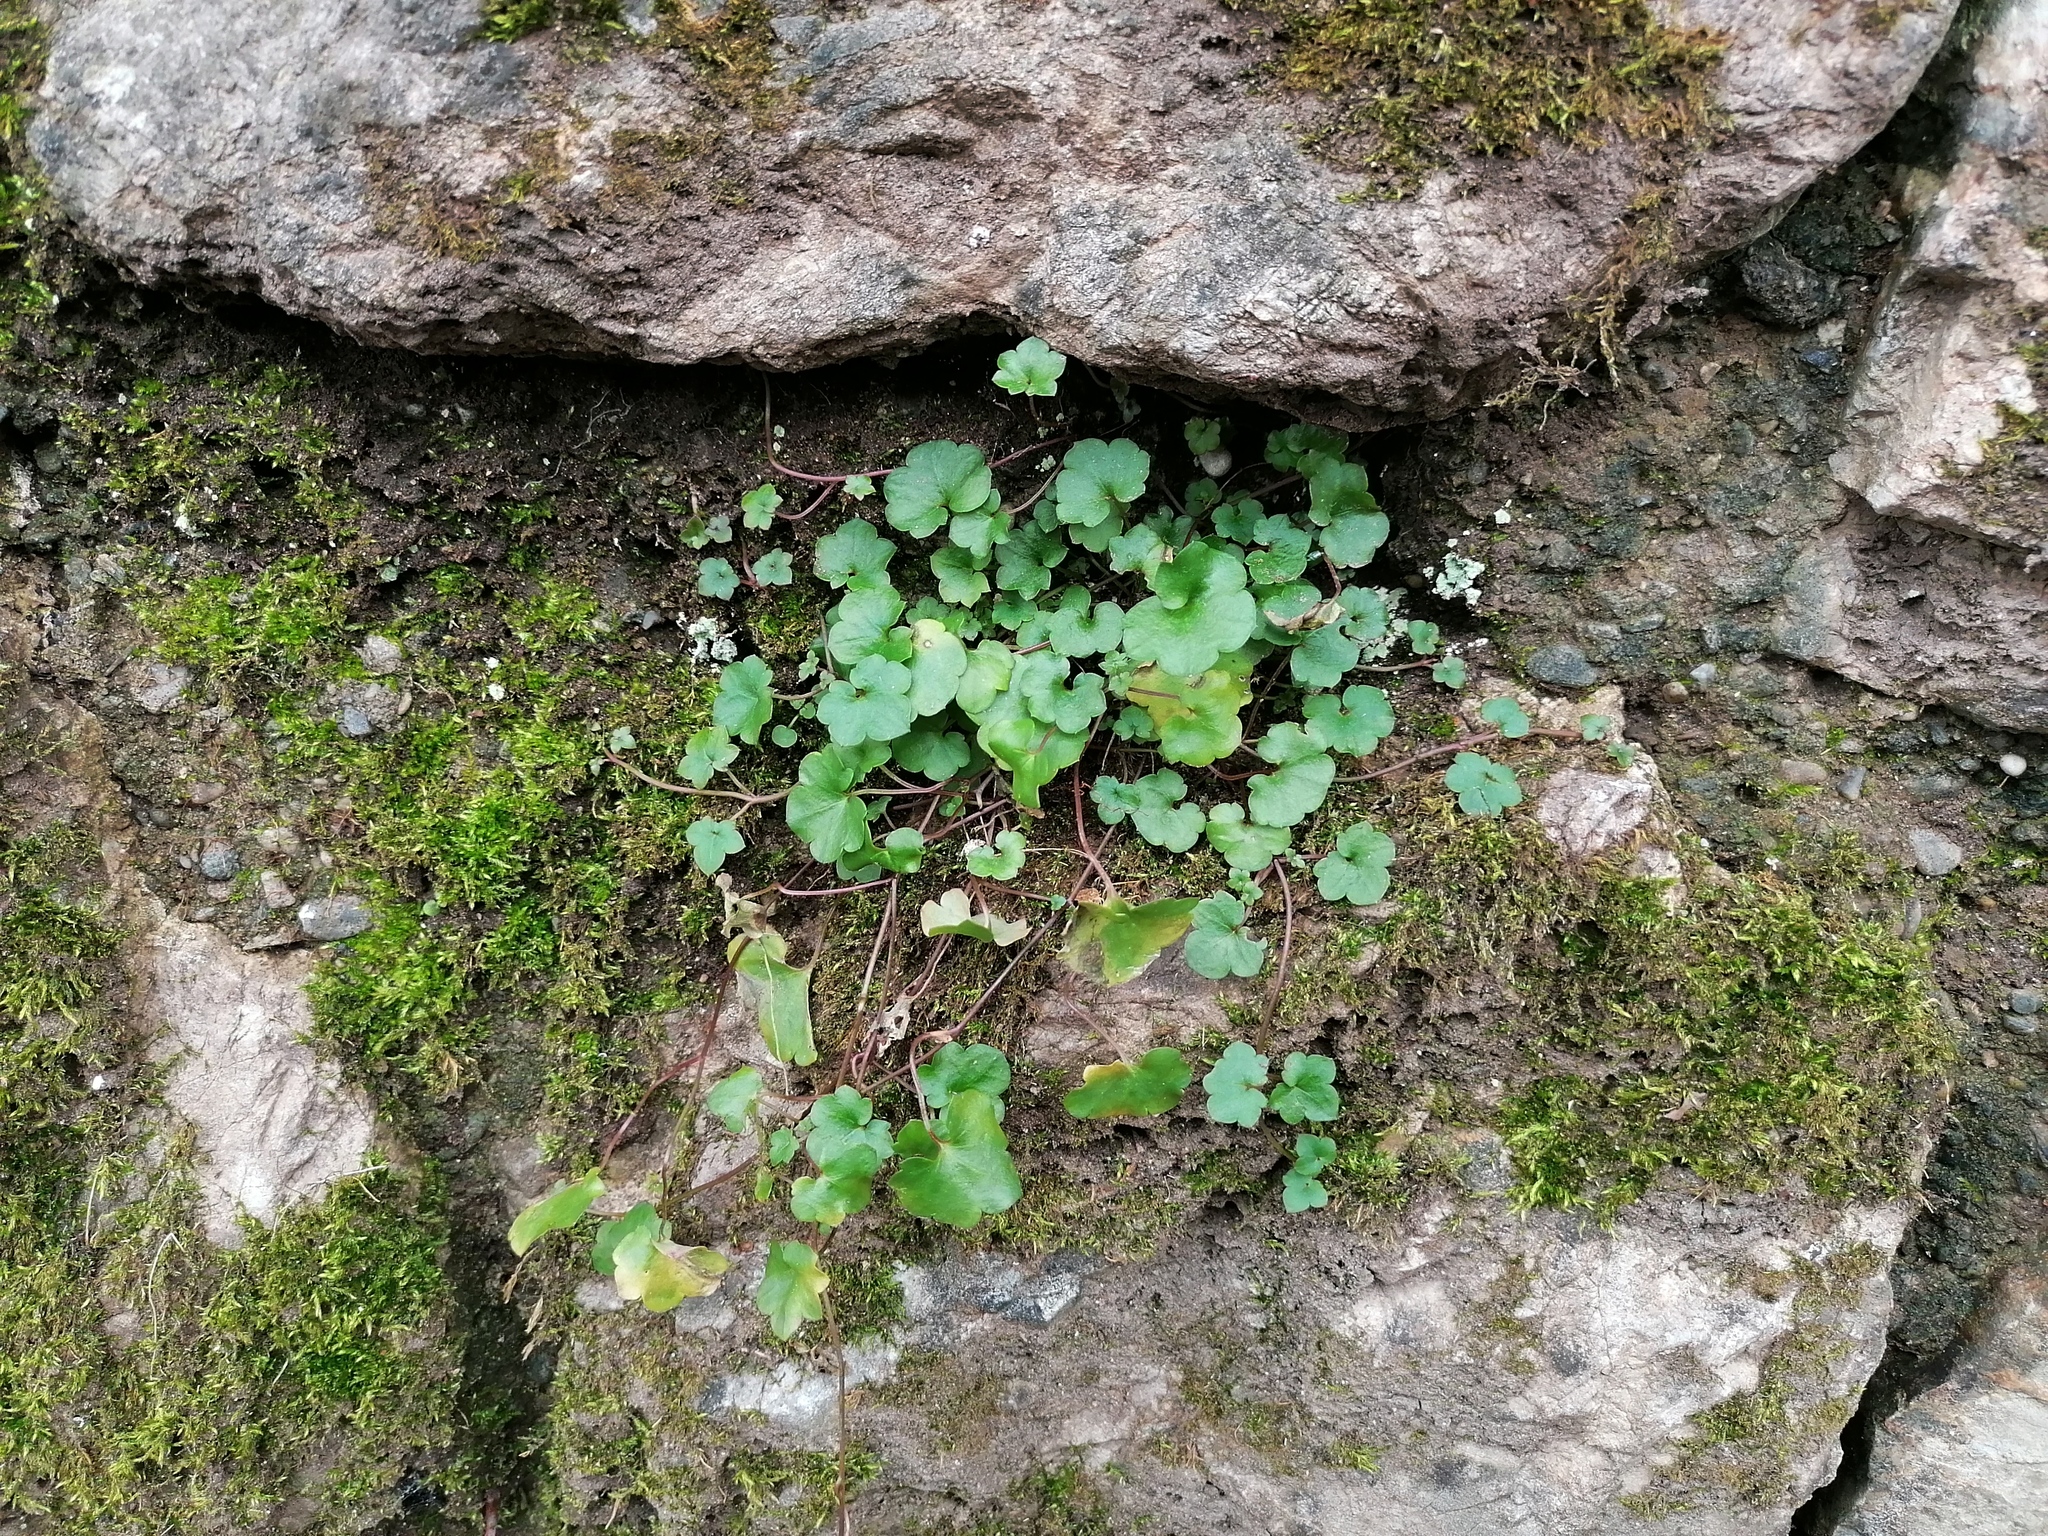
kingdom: Plantae
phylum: Tracheophyta
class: Magnoliopsida
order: Lamiales
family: Plantaginaceae
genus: Cymbalaria
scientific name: Cymbalaria muralis
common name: Ivy-leaved toadflax
